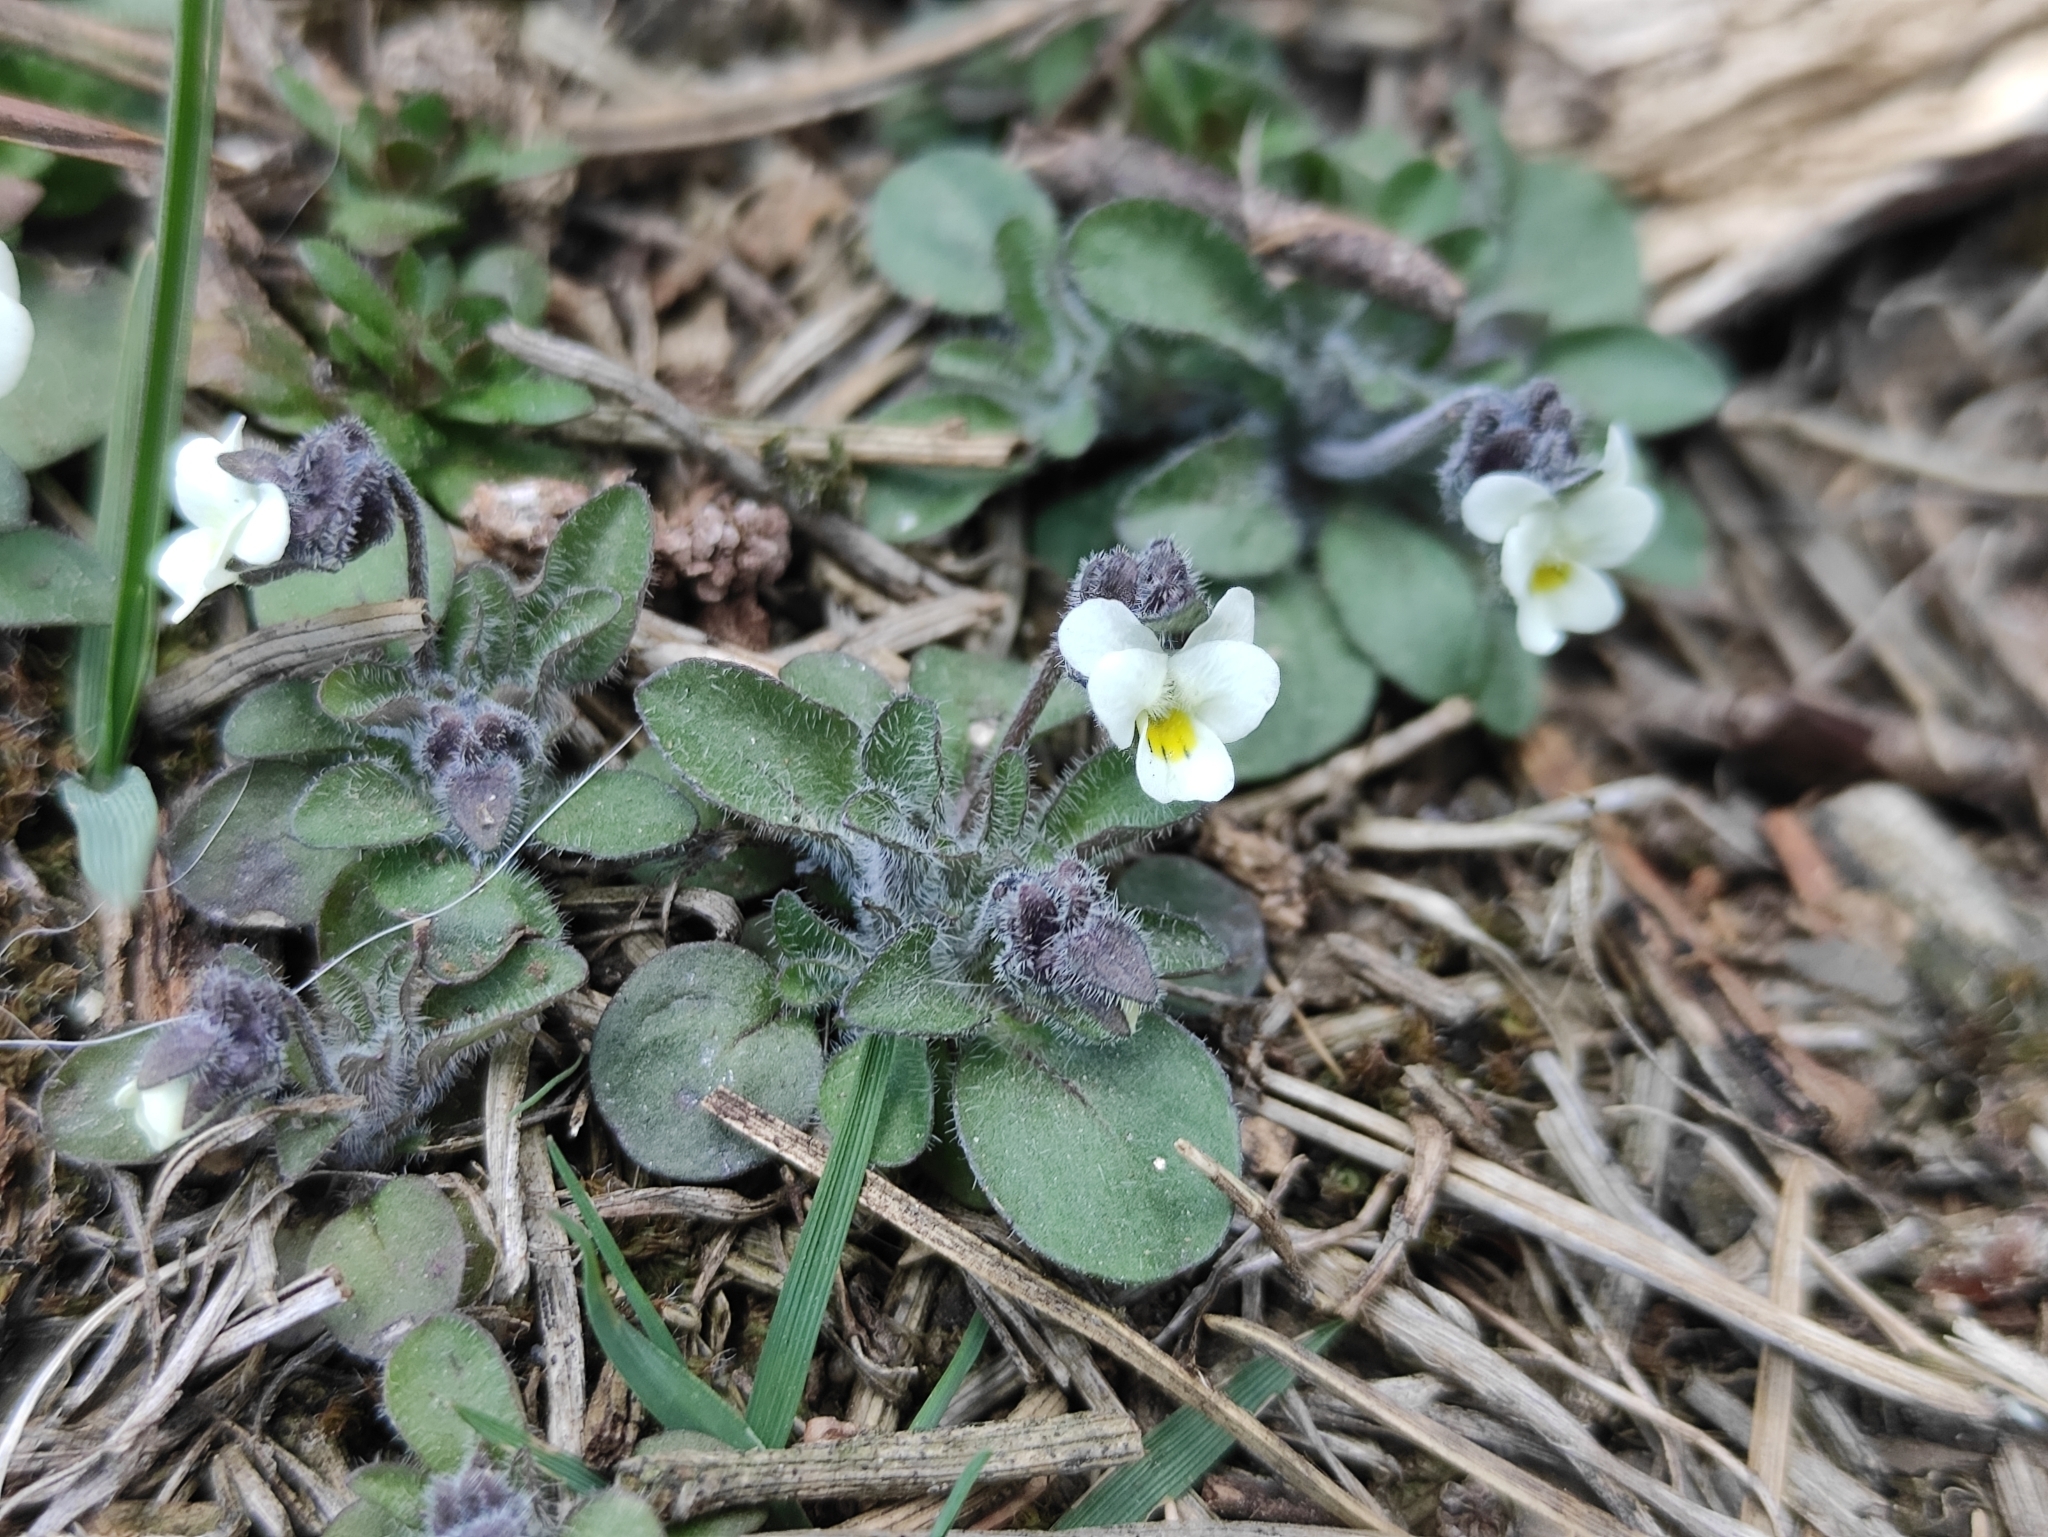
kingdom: Plantae
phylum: Tracheophyta
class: Magnoliopsida
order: Malpighiales
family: Violaceae
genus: Viola
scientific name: Viola parvula
